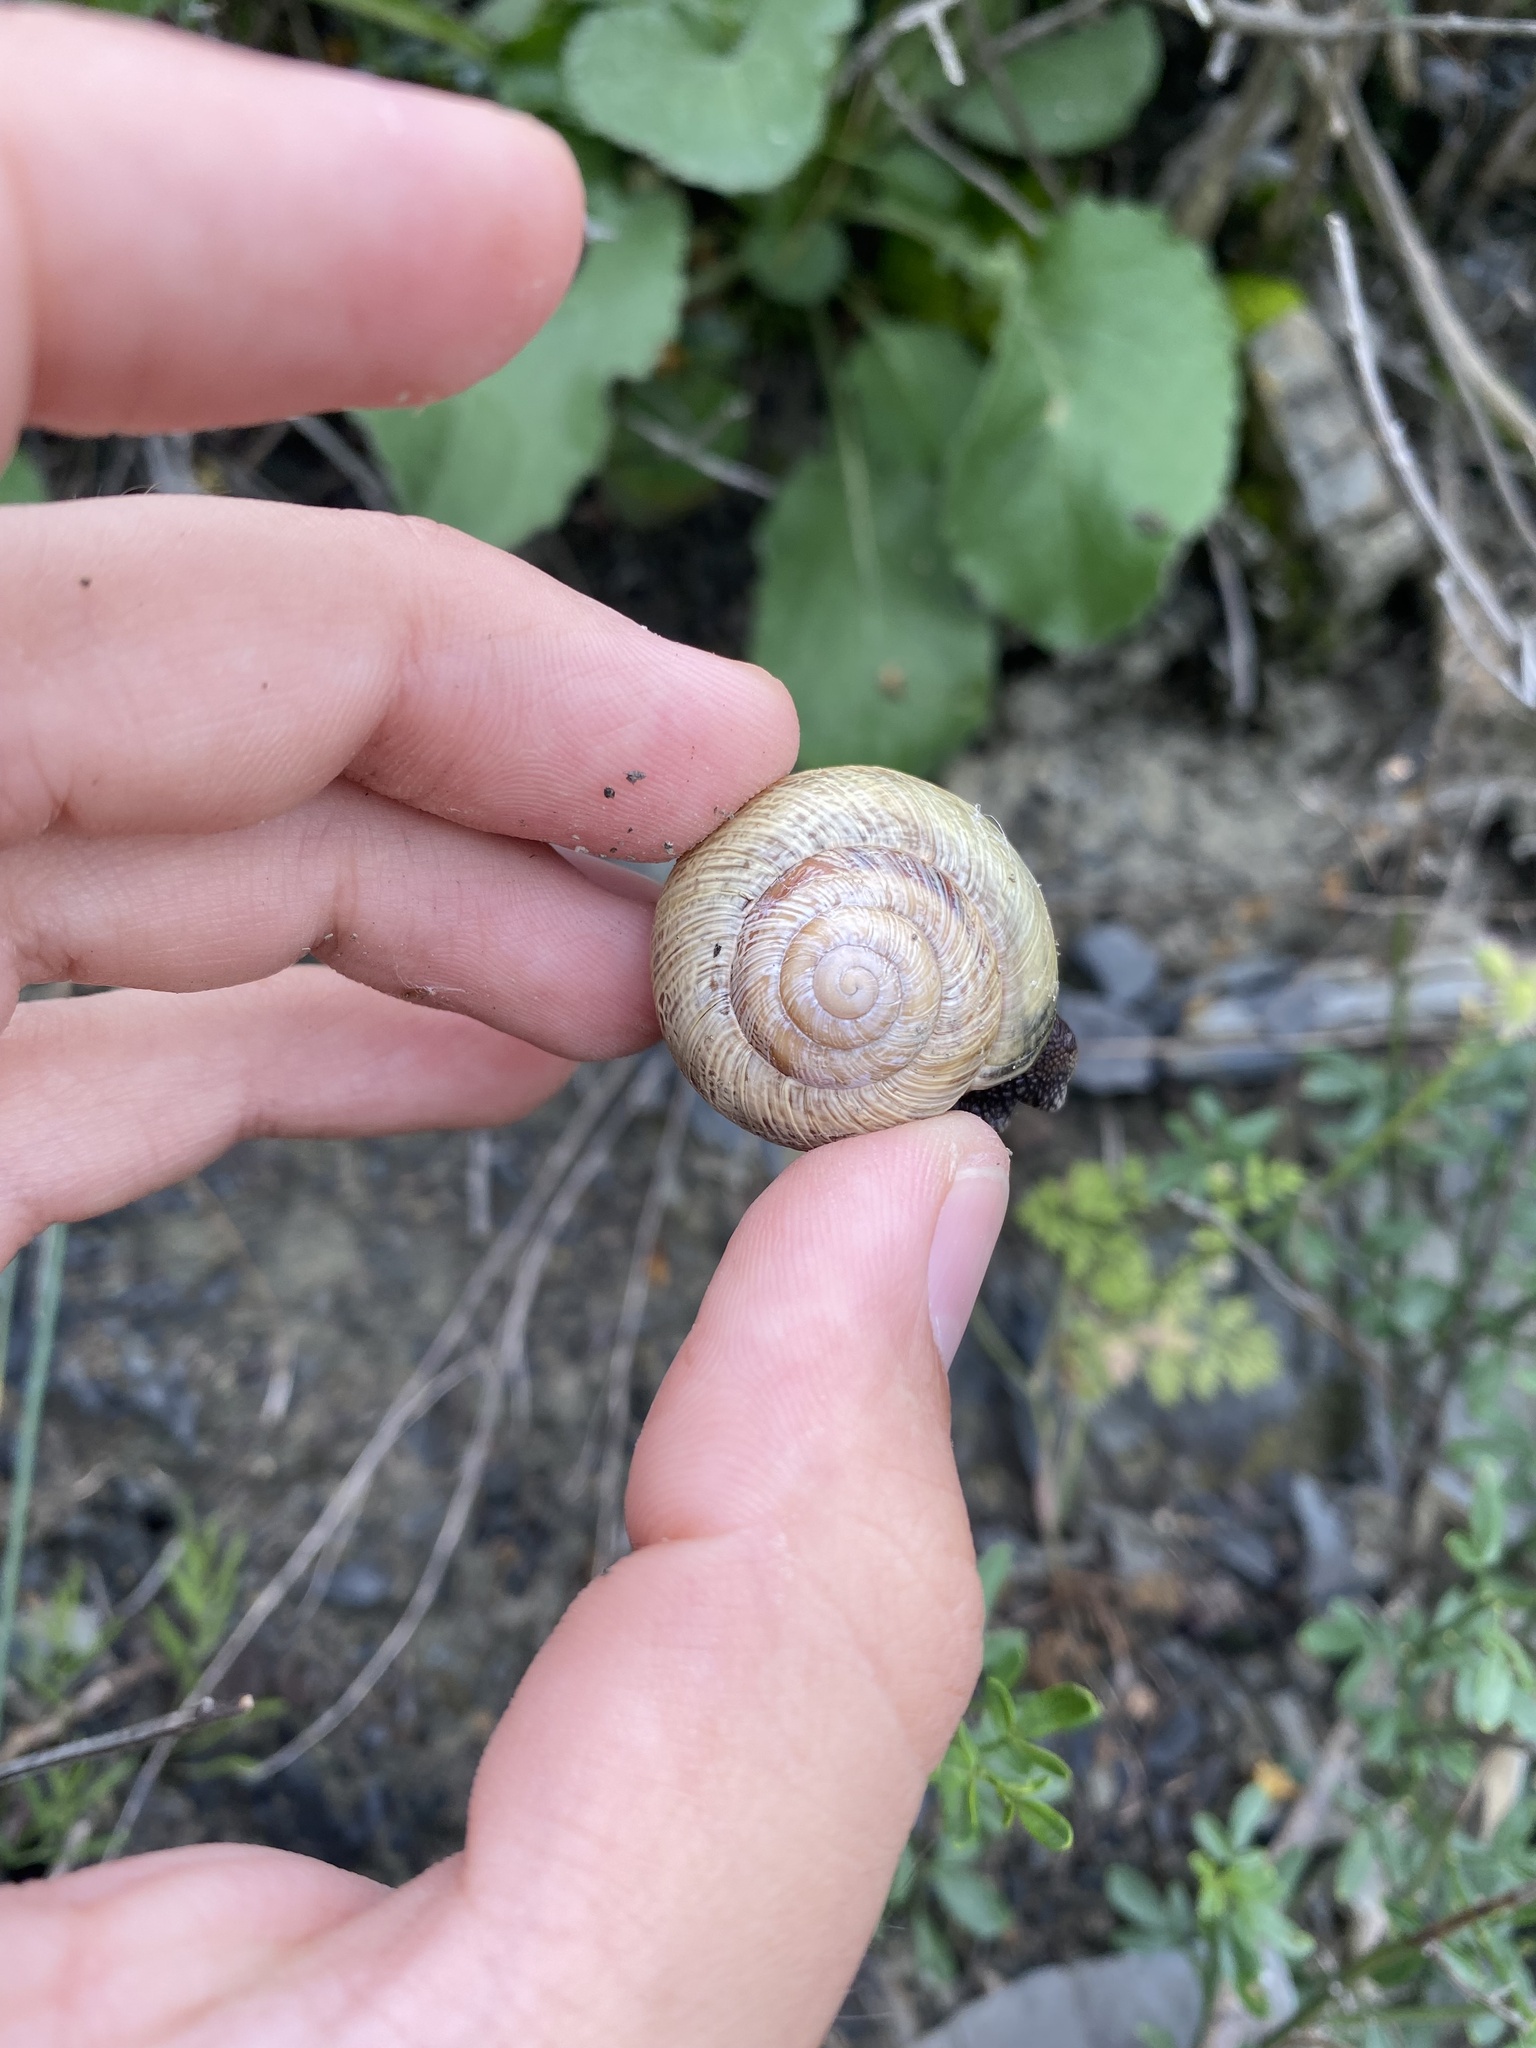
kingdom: Animalia
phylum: Mollusca
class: Gastropoda
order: Stylommatophora
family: Helicidae
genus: Caucasotachea
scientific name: Caucasotachea atrolabiata
